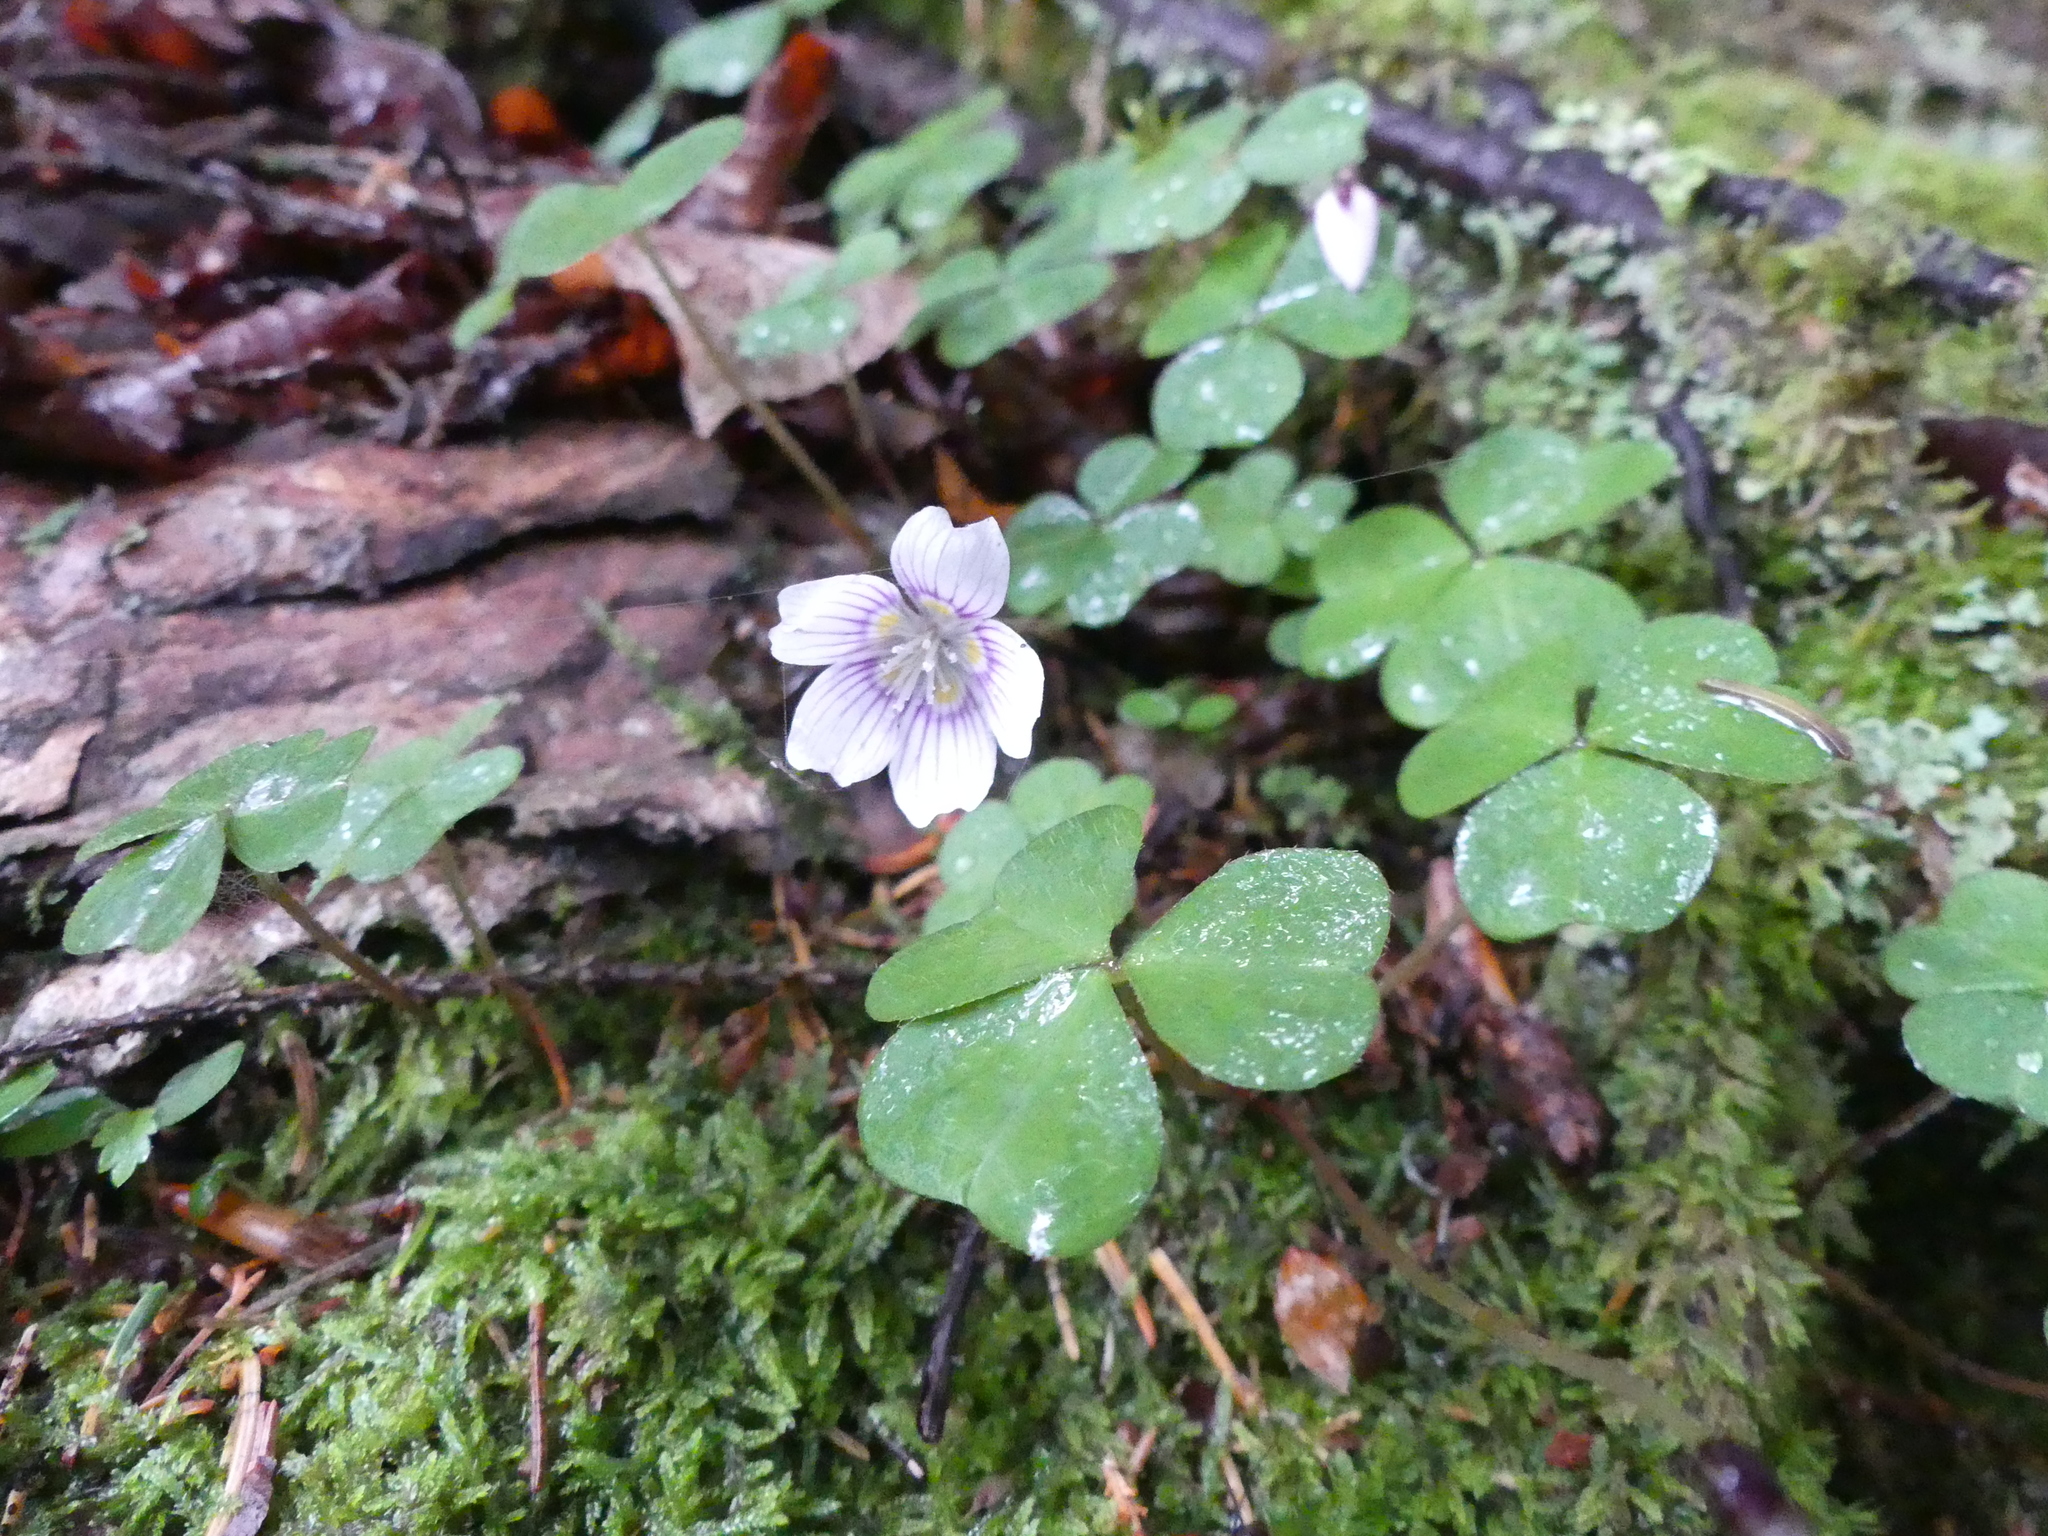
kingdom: Plantae
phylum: Tracheophyta
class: Magnoliopsida
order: Oxalidales
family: Oxalidaceae
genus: Oxalis
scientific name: Oxalis montana
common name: American wood-sorrel
